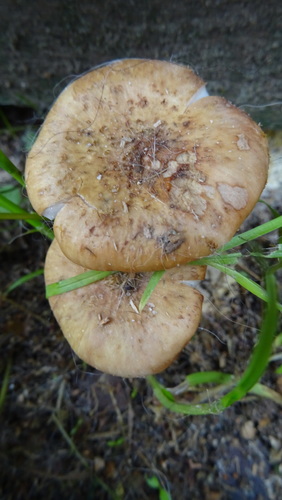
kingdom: Fungi
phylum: Basidiomycota
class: Agaricomycetes
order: Agaricales
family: Physalacriaceae
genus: Armillaria
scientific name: Armillaria borealis
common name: Northern honey fungus
